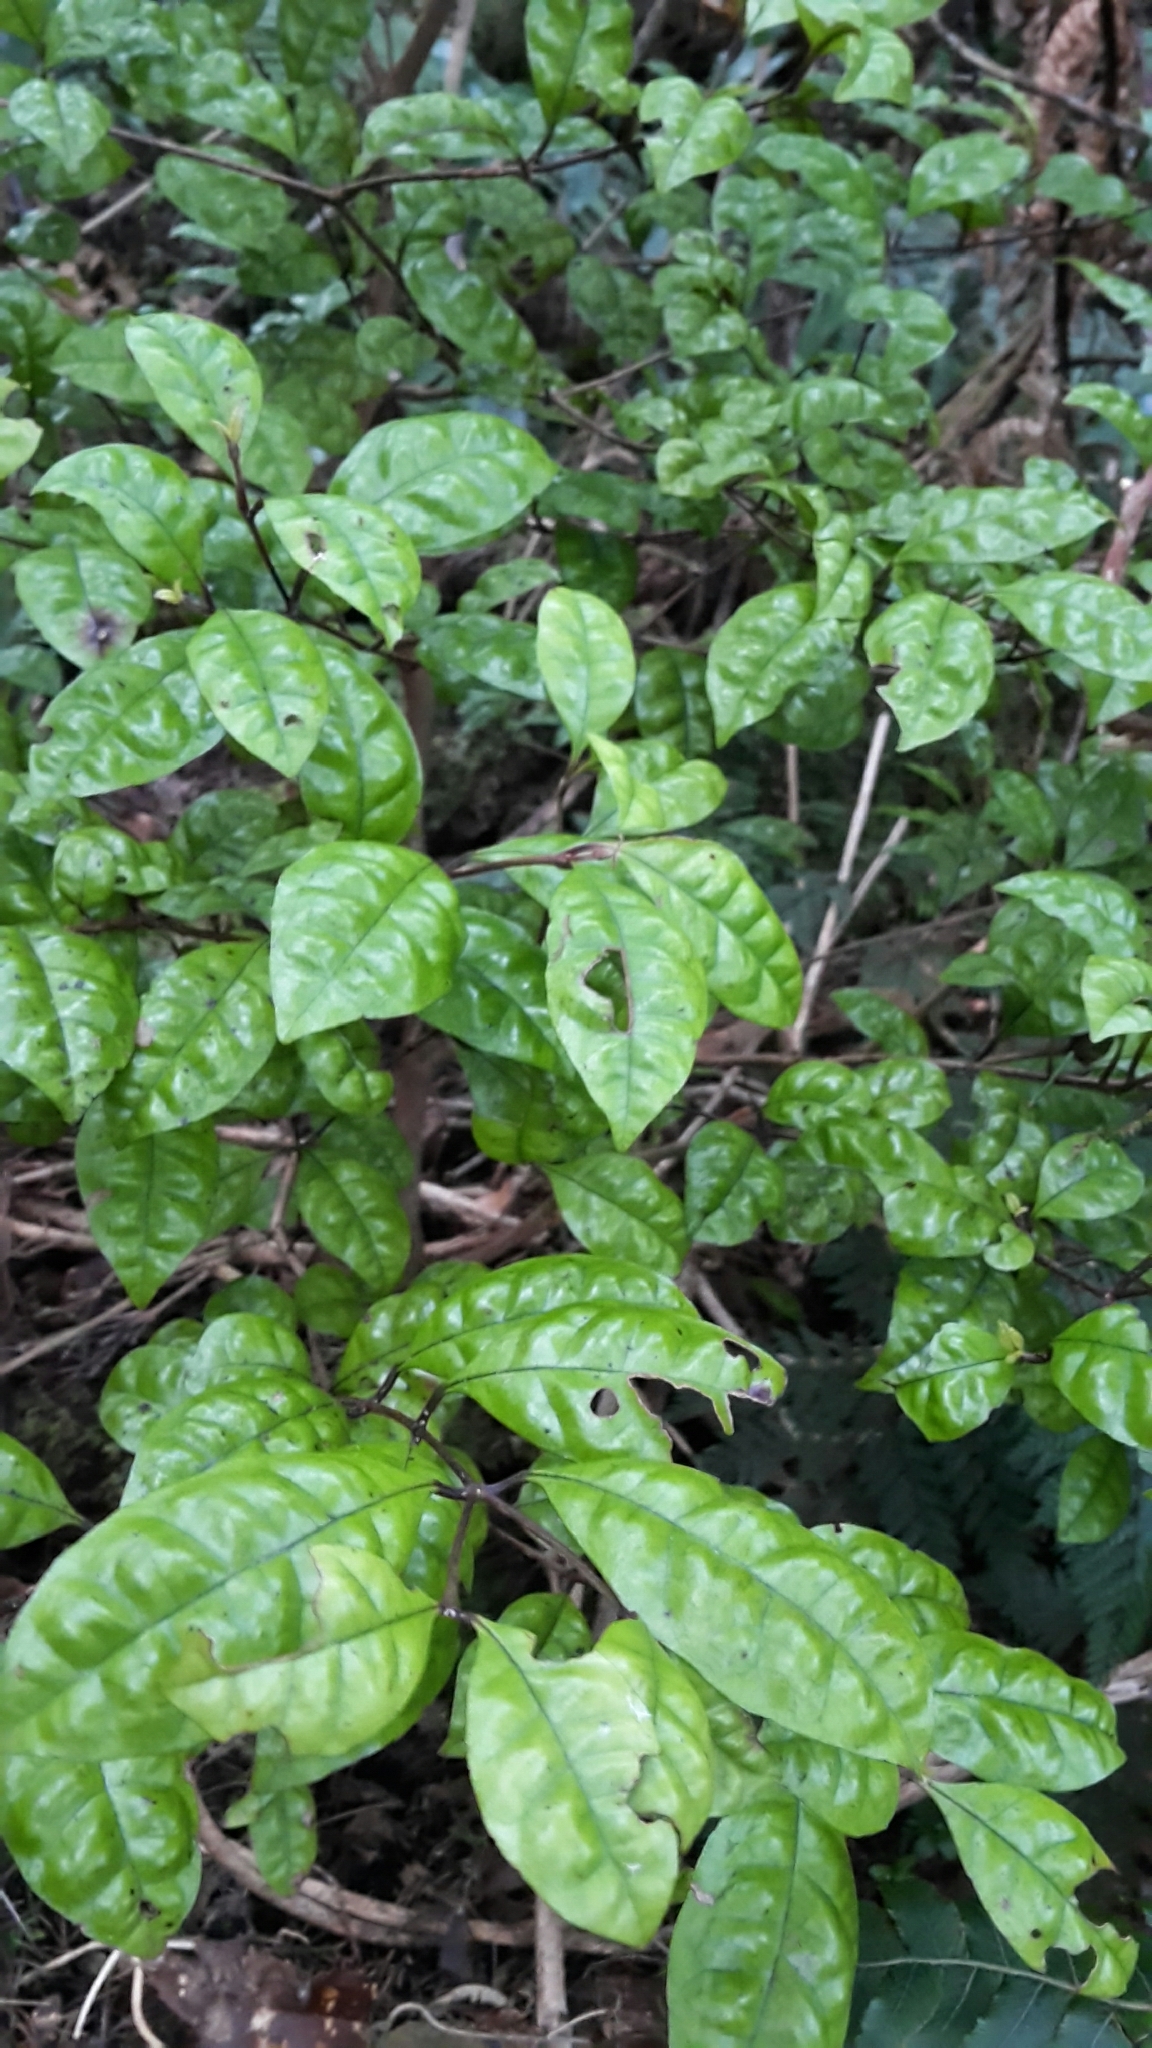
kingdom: Plantae
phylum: Tracheophyta
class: Magnoliopsida
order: Myrtales
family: Myrtaceae
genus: Lophomyrtus
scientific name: Lophomyrtus bullata
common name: Rama rama
